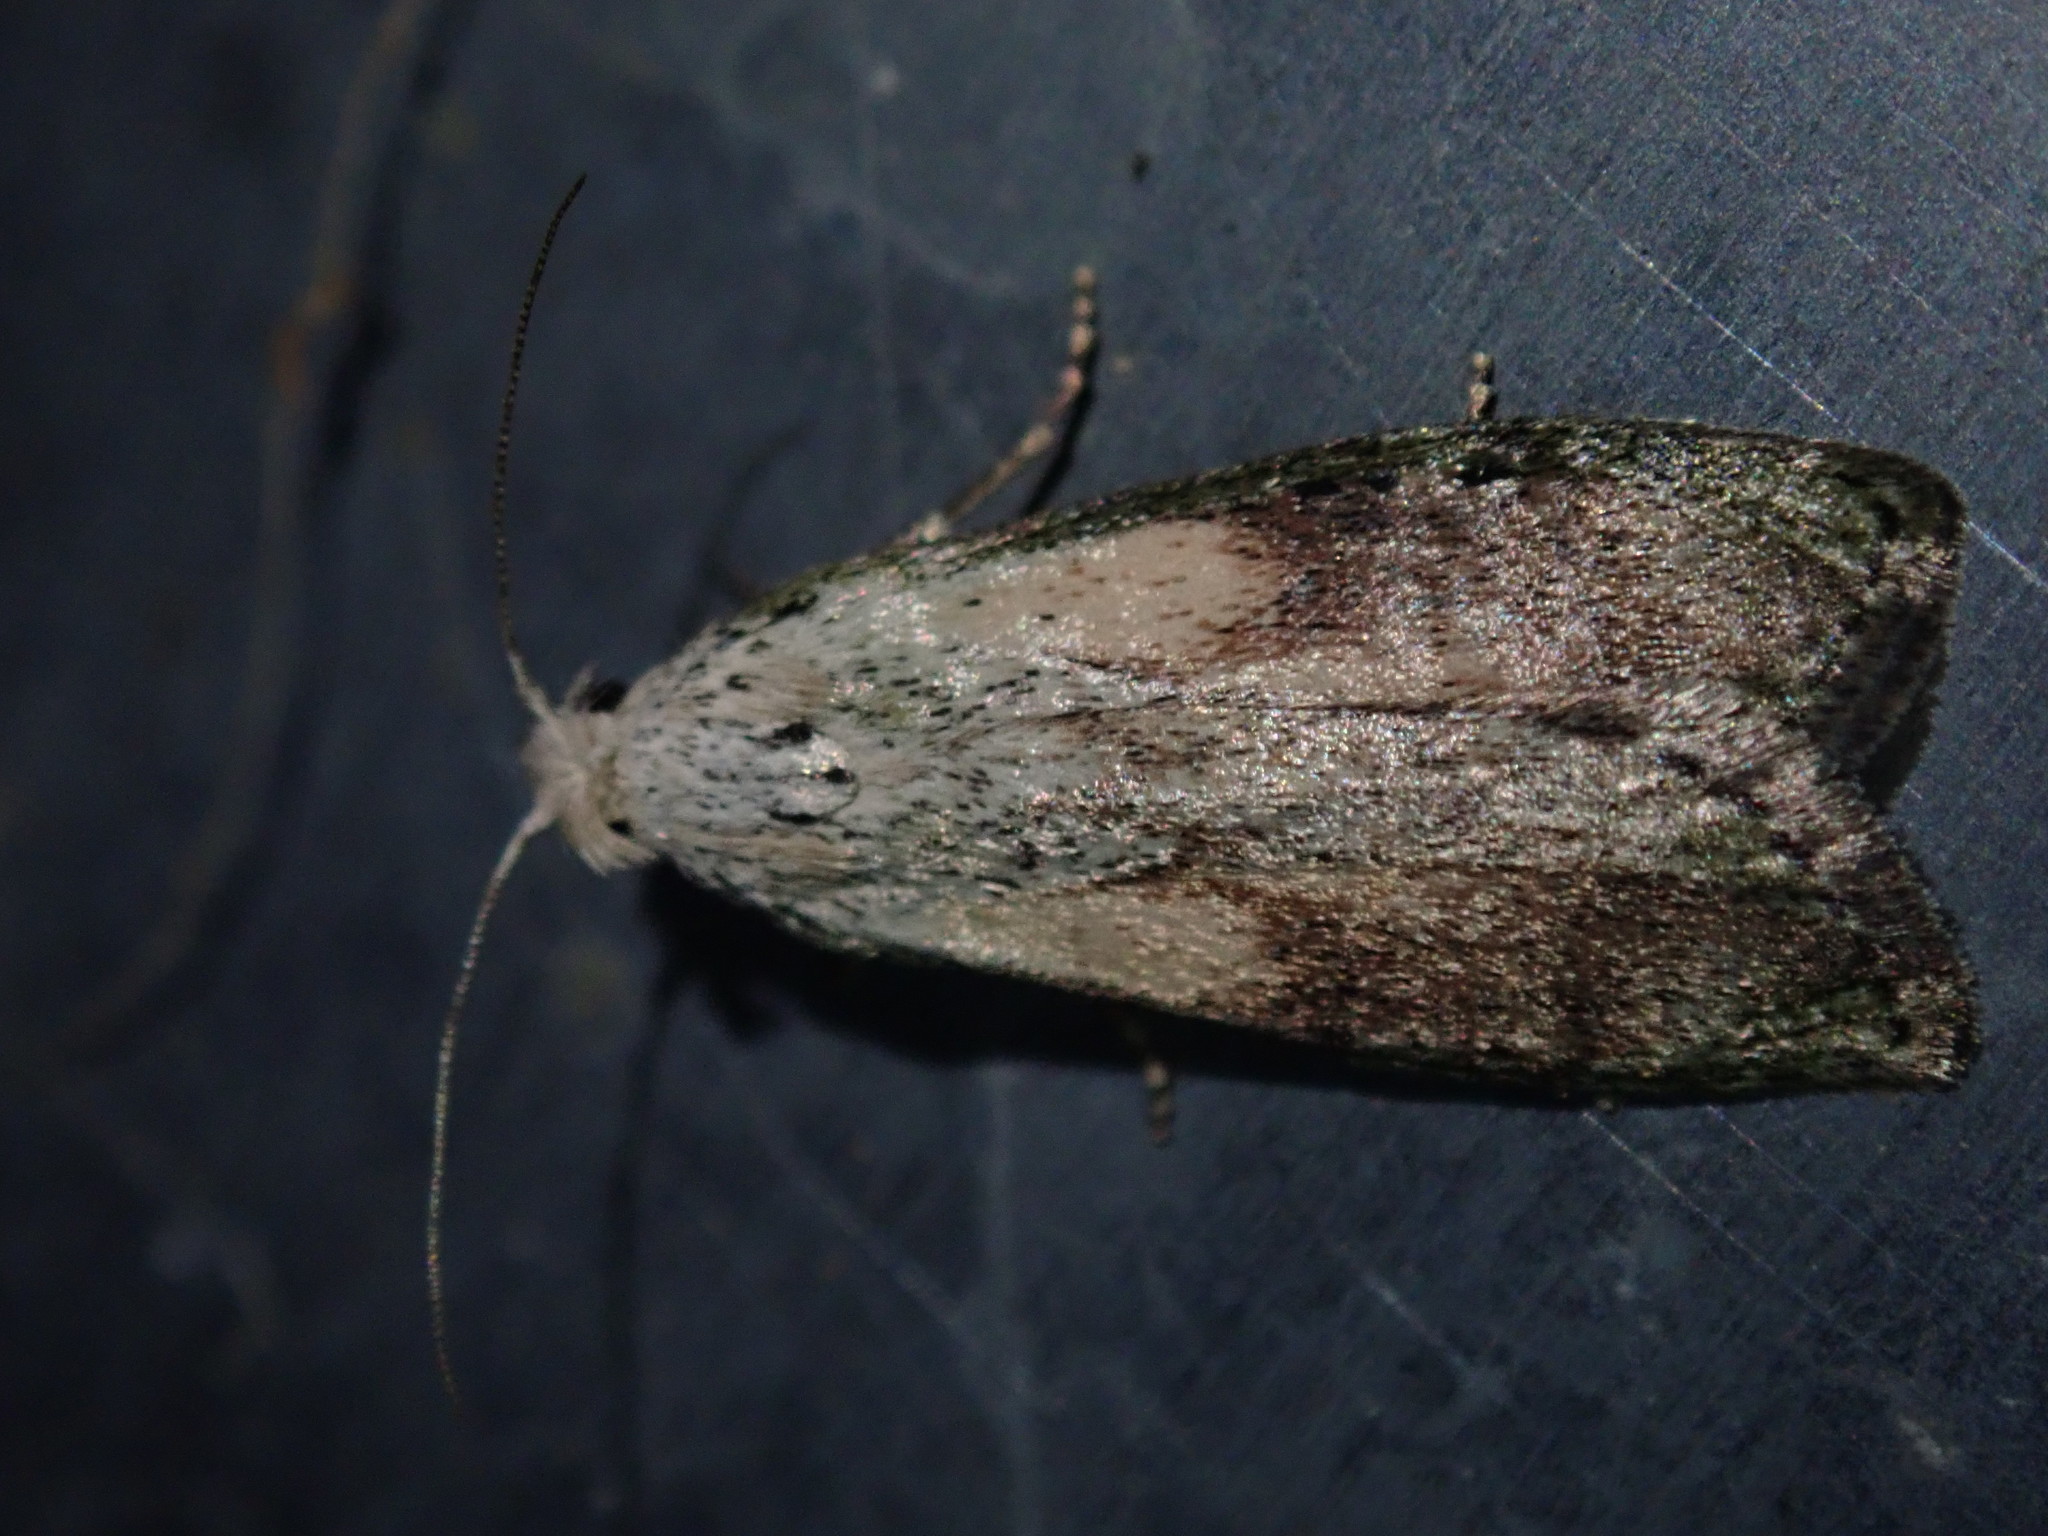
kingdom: Animalia
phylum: Arthropoda
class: Insecta
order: Lepidoptera
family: Pyralidae
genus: Aphomia
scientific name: Aphomia sociella
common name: Bee moth
